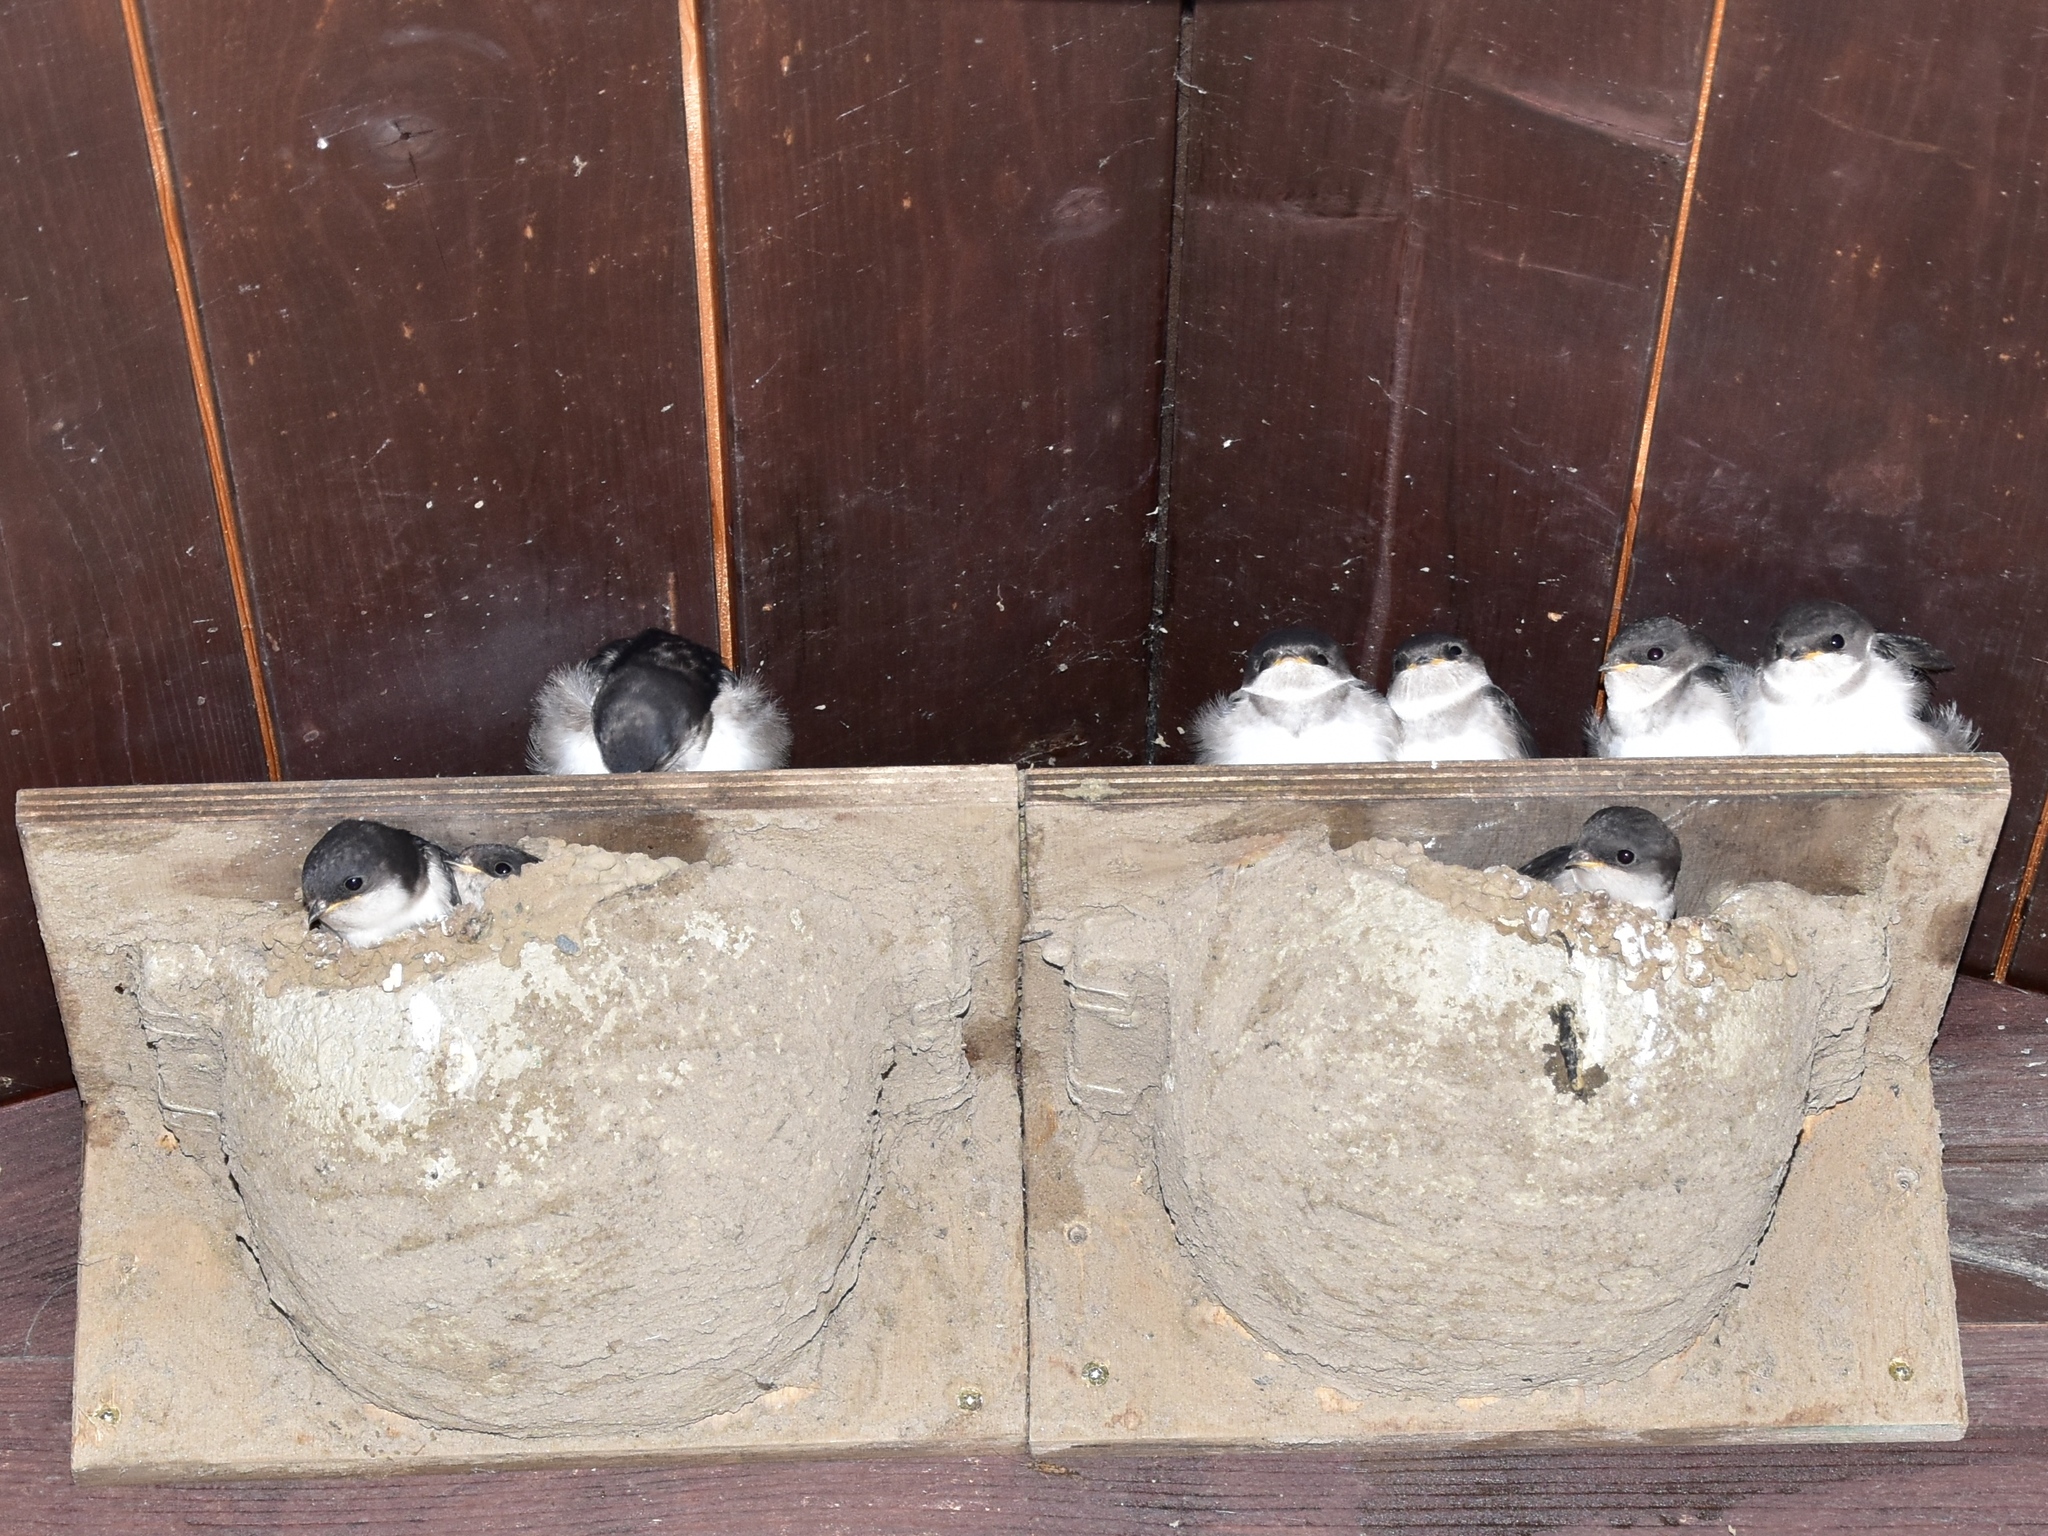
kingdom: Animalia
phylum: Chordata
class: Aves
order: Passeriformes
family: Hirundinidae
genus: Delichon
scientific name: Delichon urbicum
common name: Common house martin
